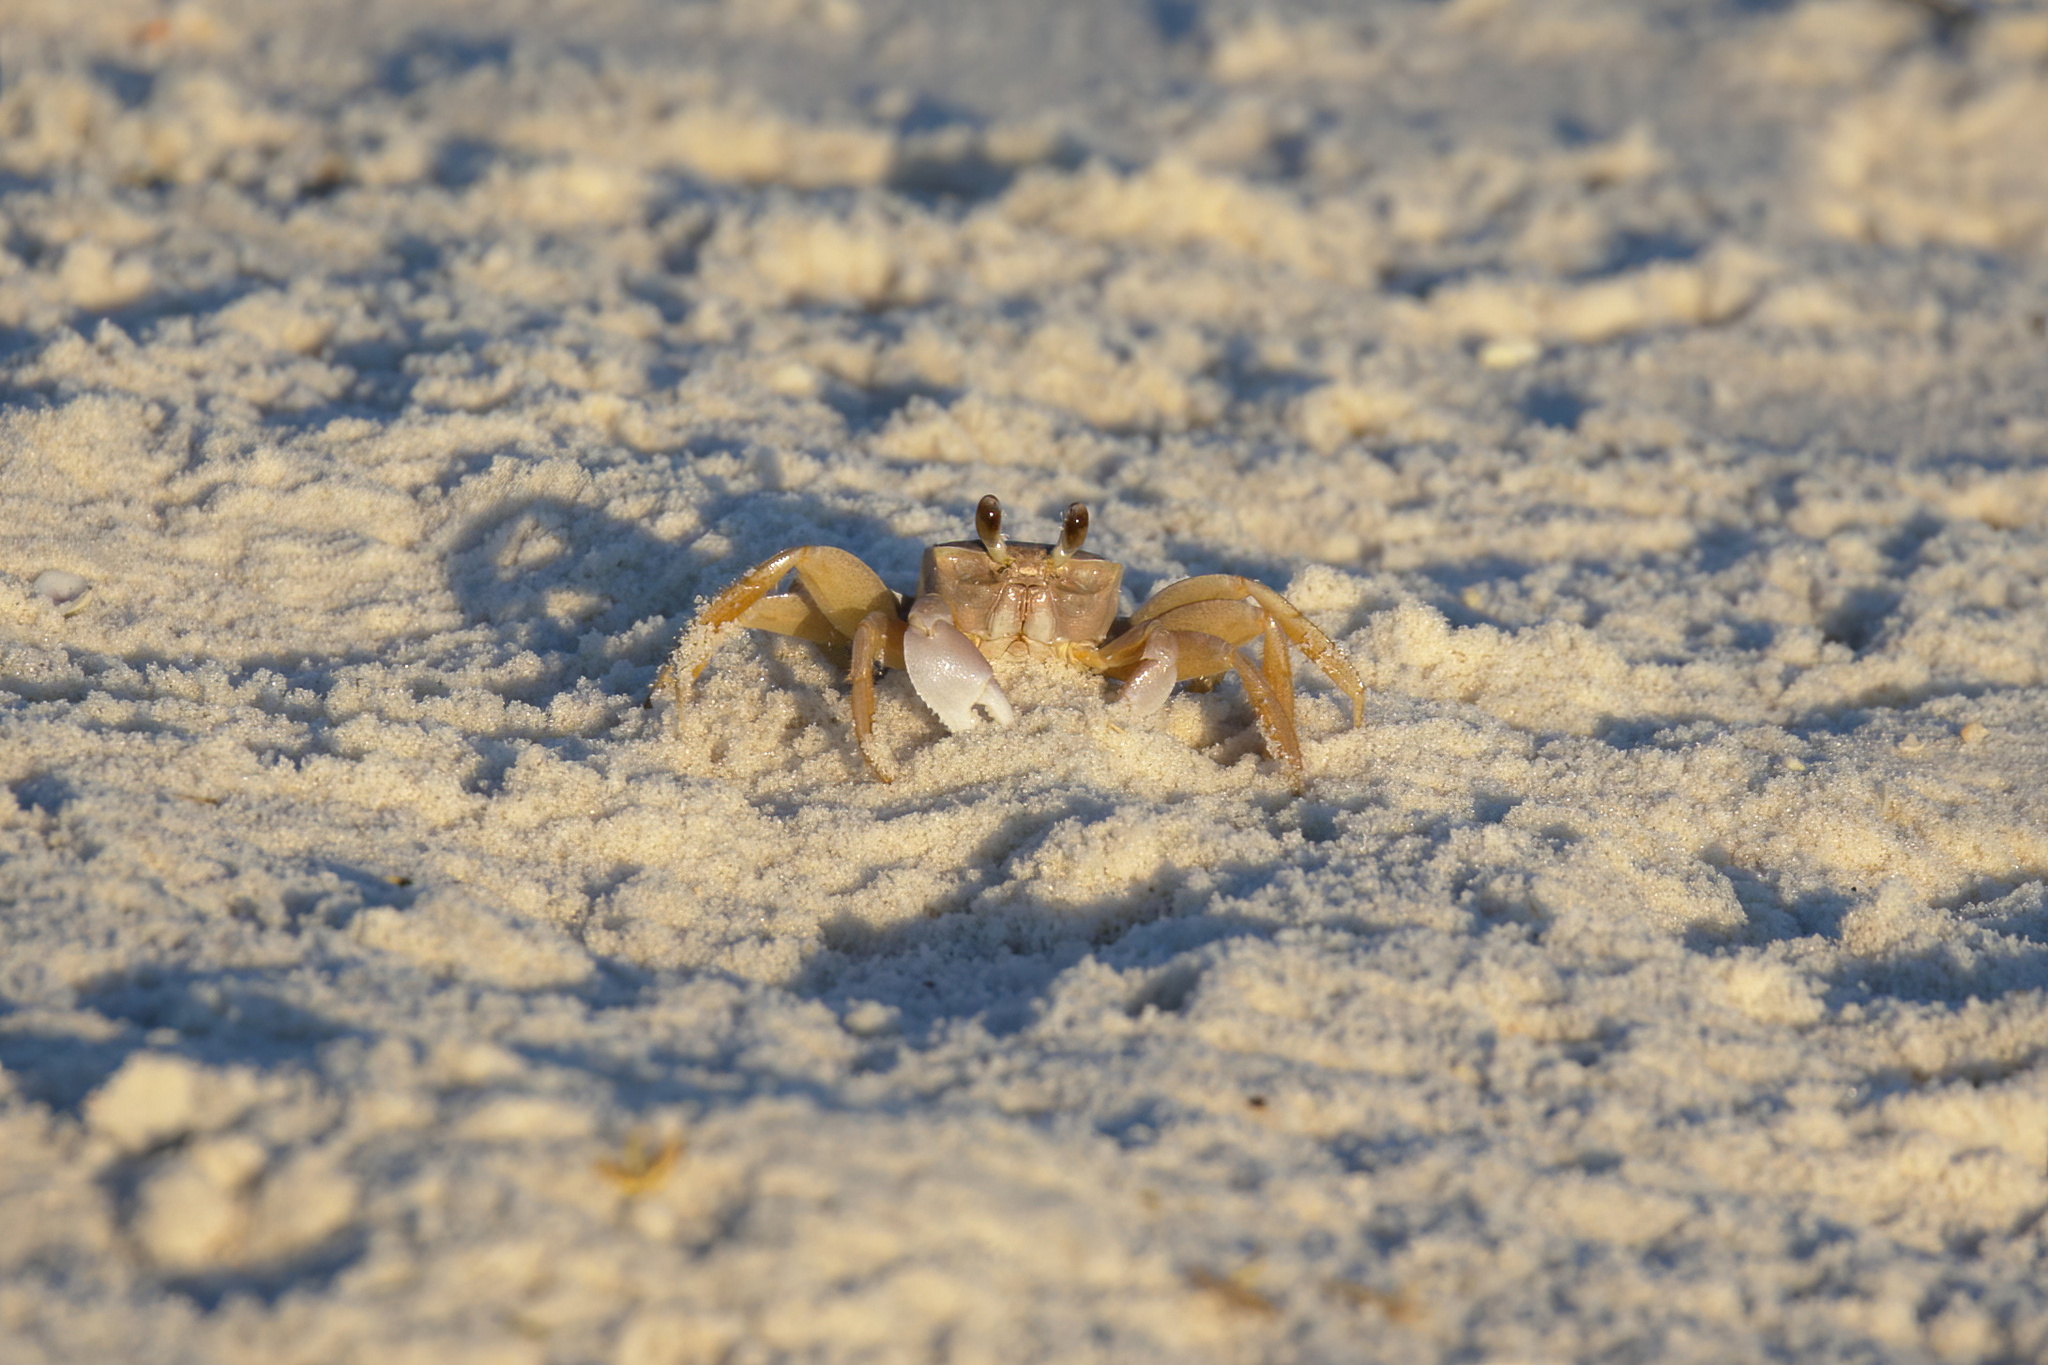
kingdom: Animalia
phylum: Arthropoda
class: Malacostraca
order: Decapoda
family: Ocypodidae
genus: Ocypode
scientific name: Ocypode quadrata
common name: Ghost crab
